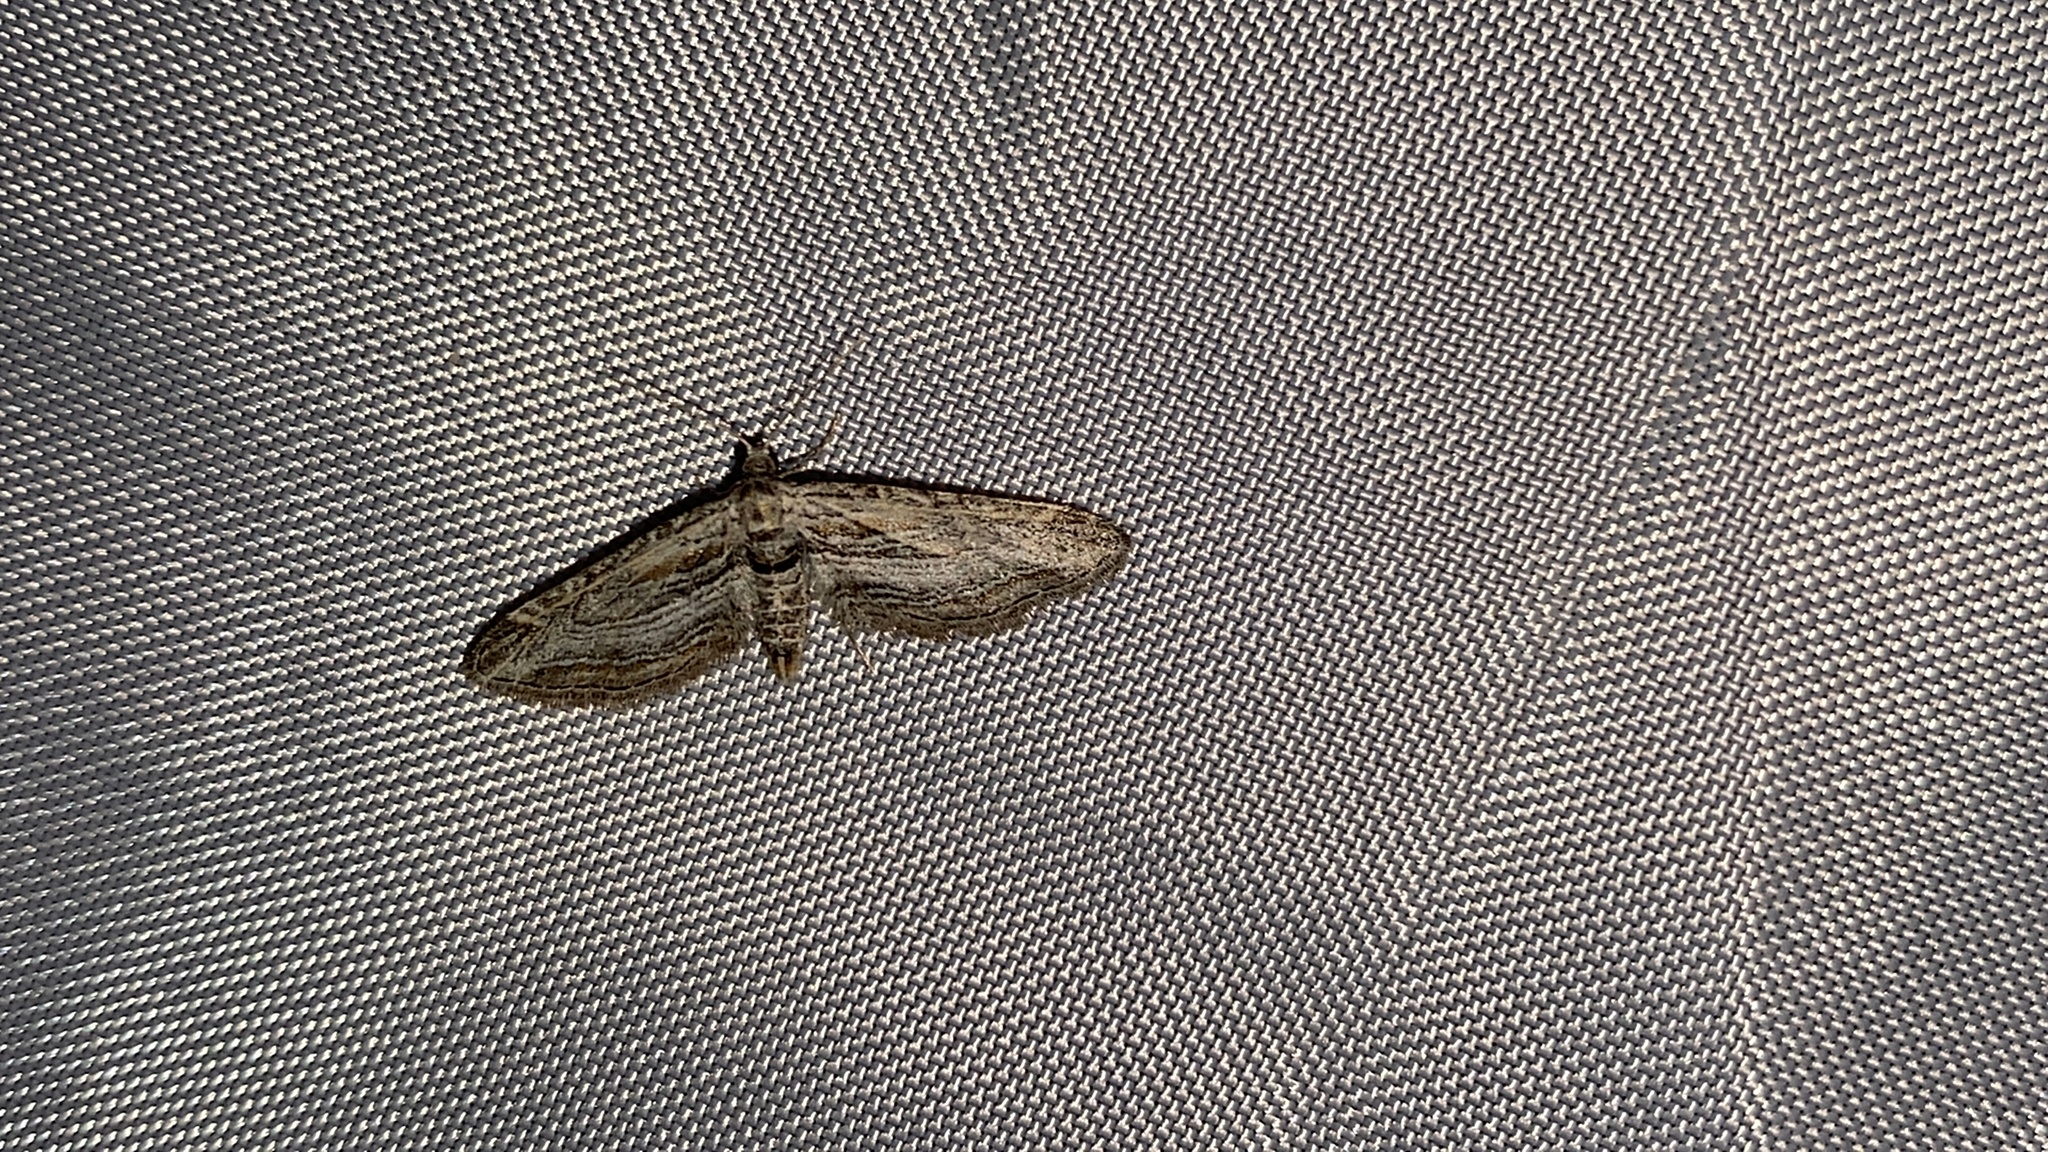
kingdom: Animalia
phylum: Arthropoda
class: Insecta
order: Lepidoptera
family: Geometridae
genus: Eupithecia
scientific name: Eupithecia adequata
